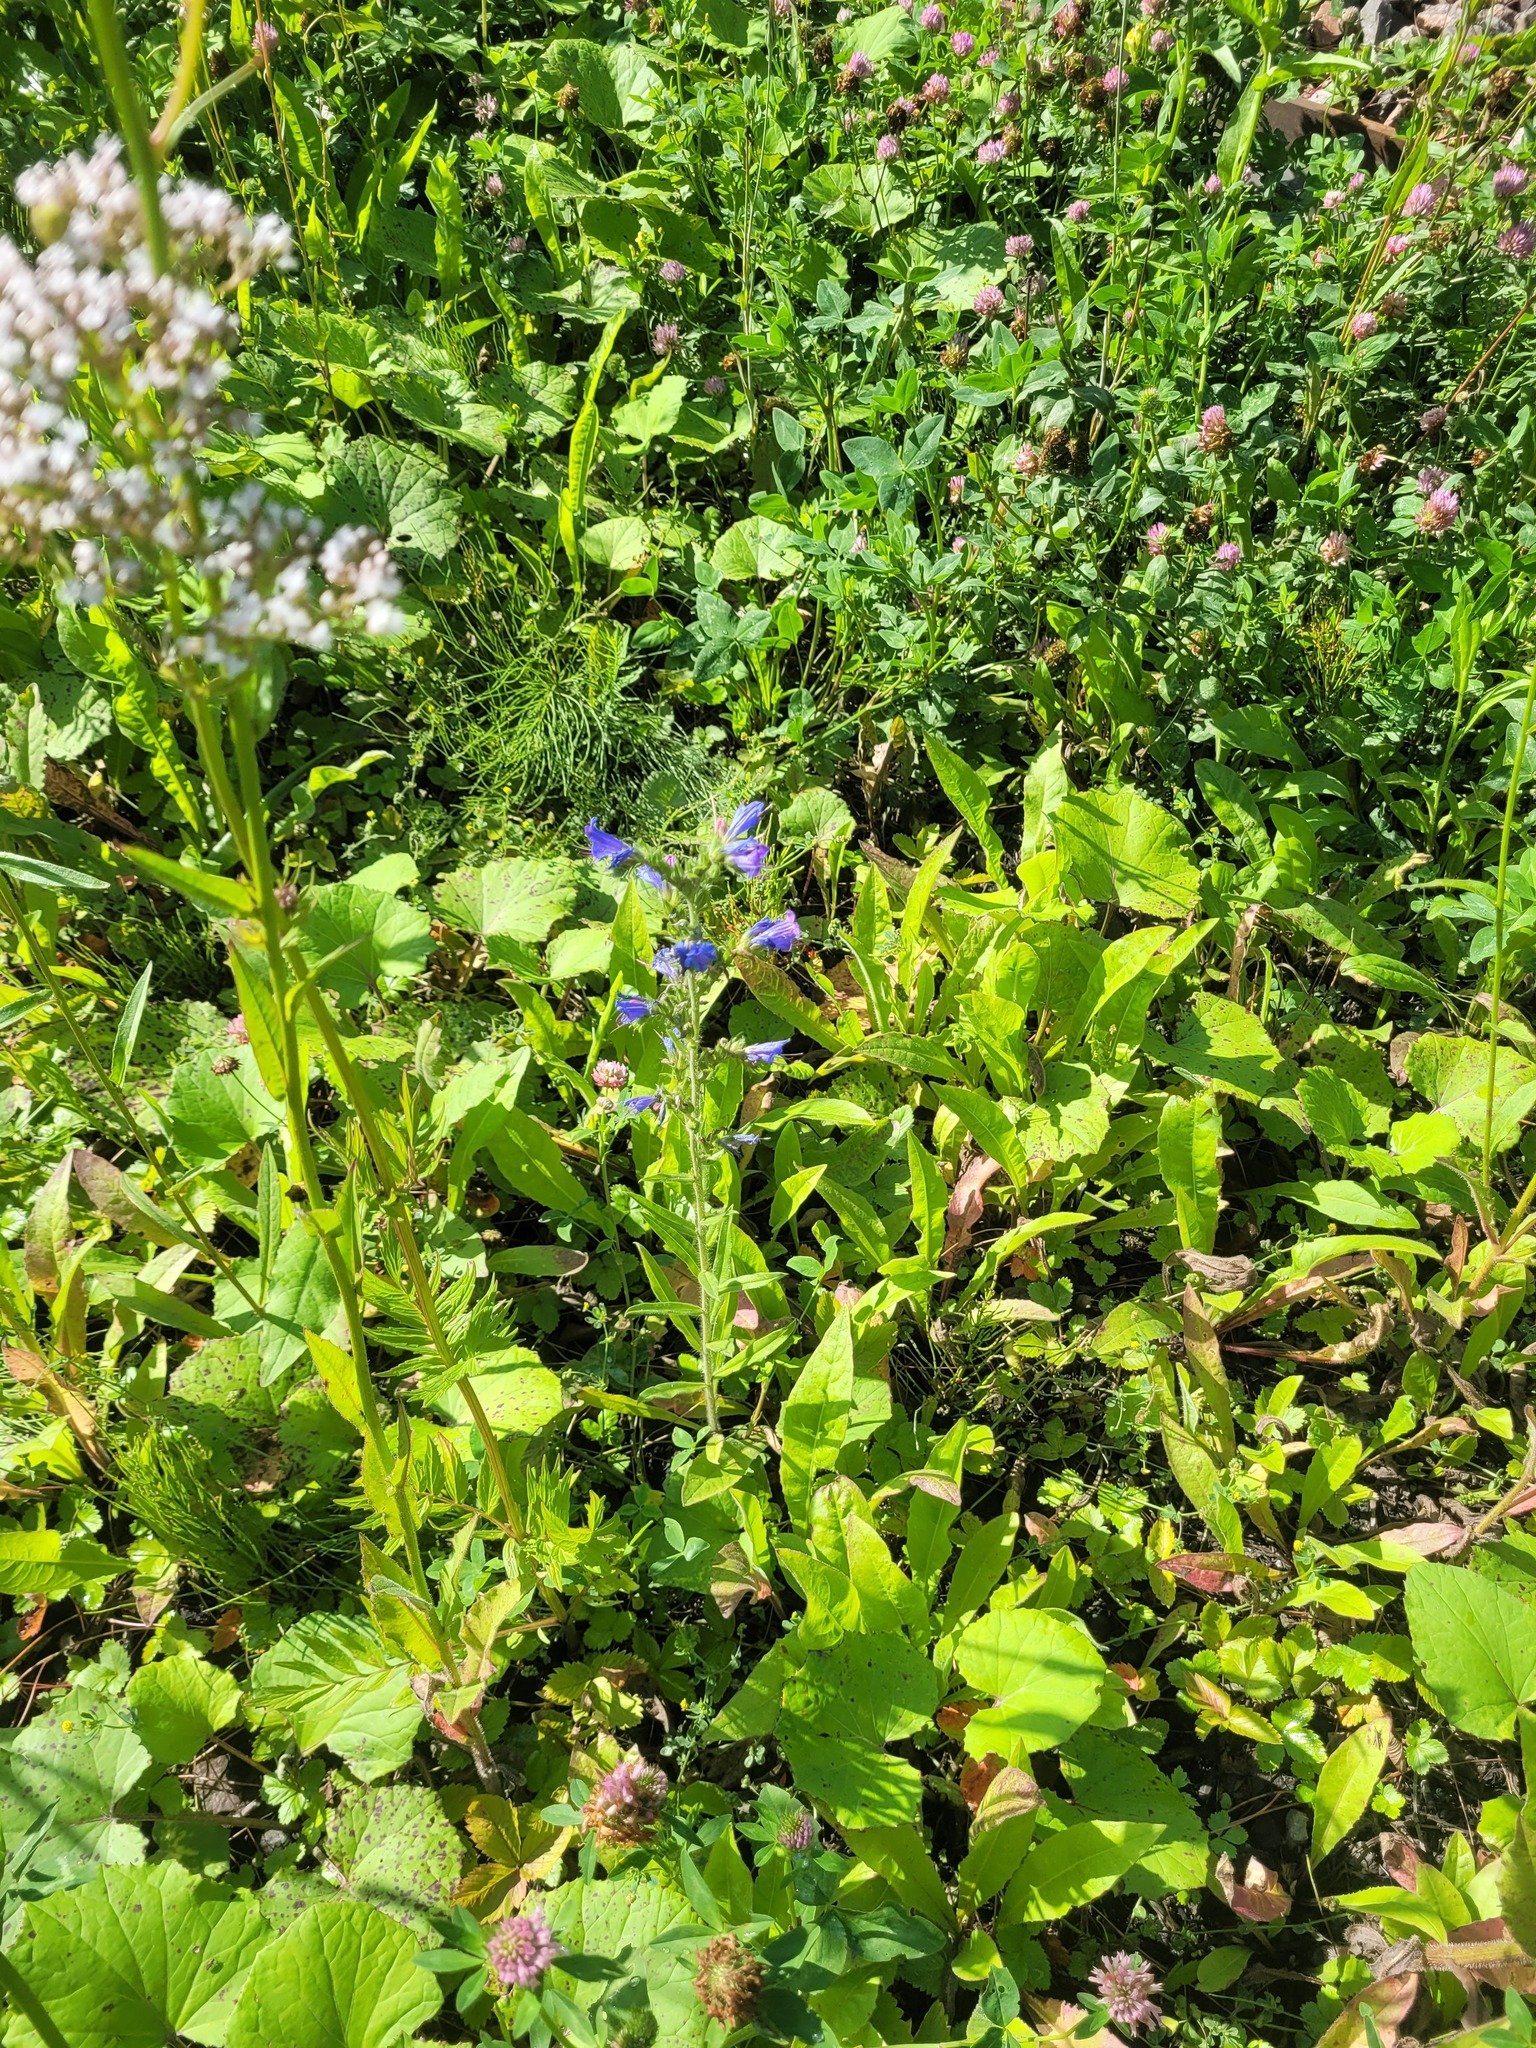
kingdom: Plantae
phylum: Tracheophyta
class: Magnoliopsida
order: Boraginales
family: Boraginaceae
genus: Echium
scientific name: Echium vulgare
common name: Common viper's bugloss
